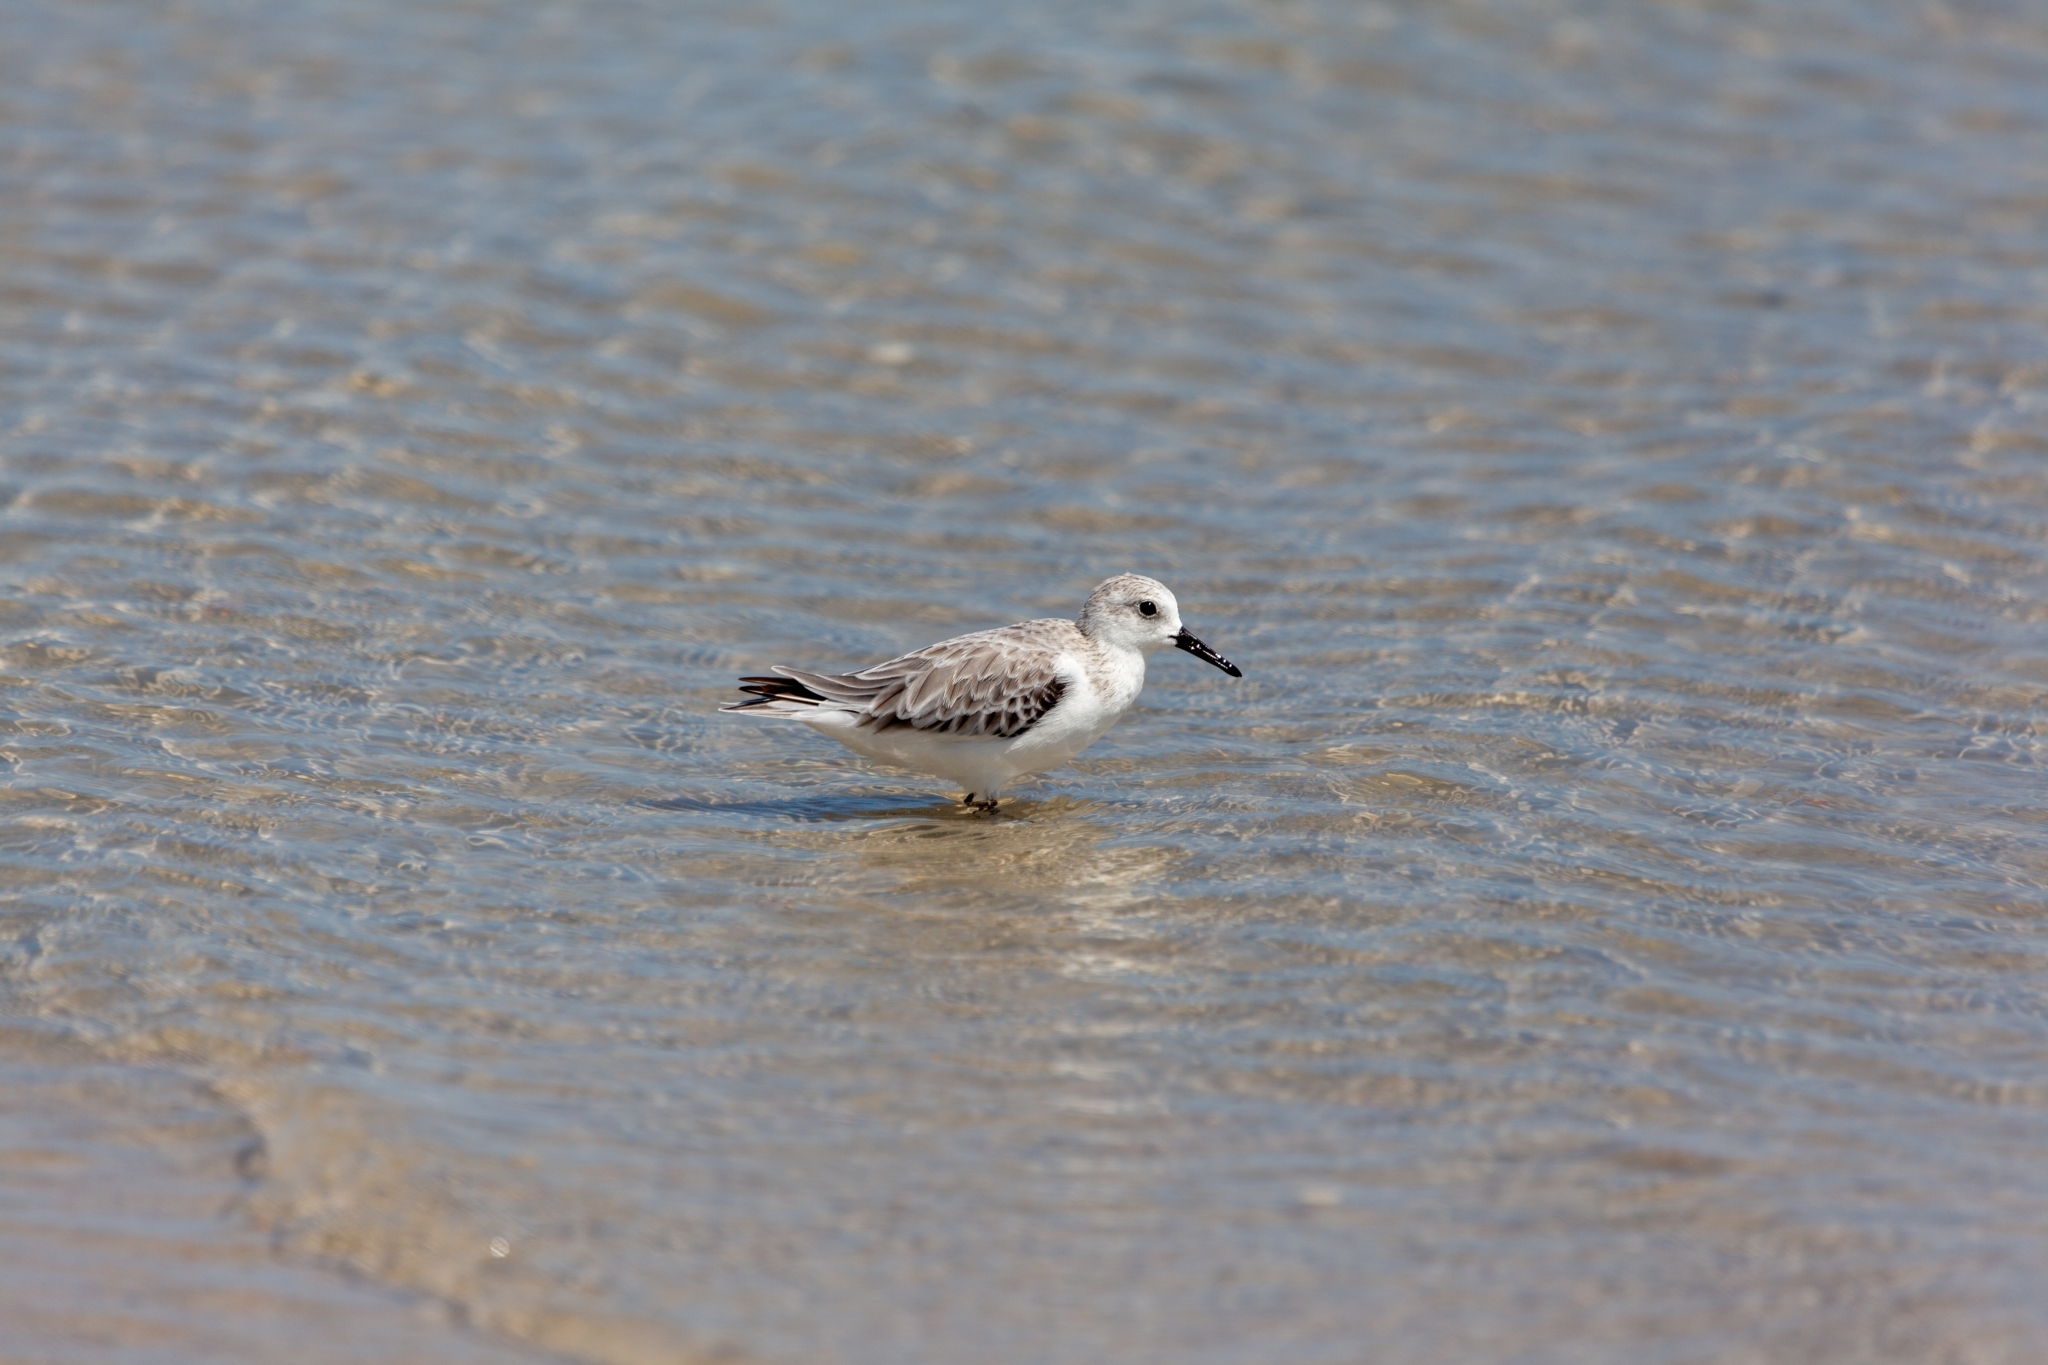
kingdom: Animalia
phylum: Chordata
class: Aves
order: Charadriiformes
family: Scolopacidae
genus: Calidris
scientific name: Calidris alba
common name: Sanderling
